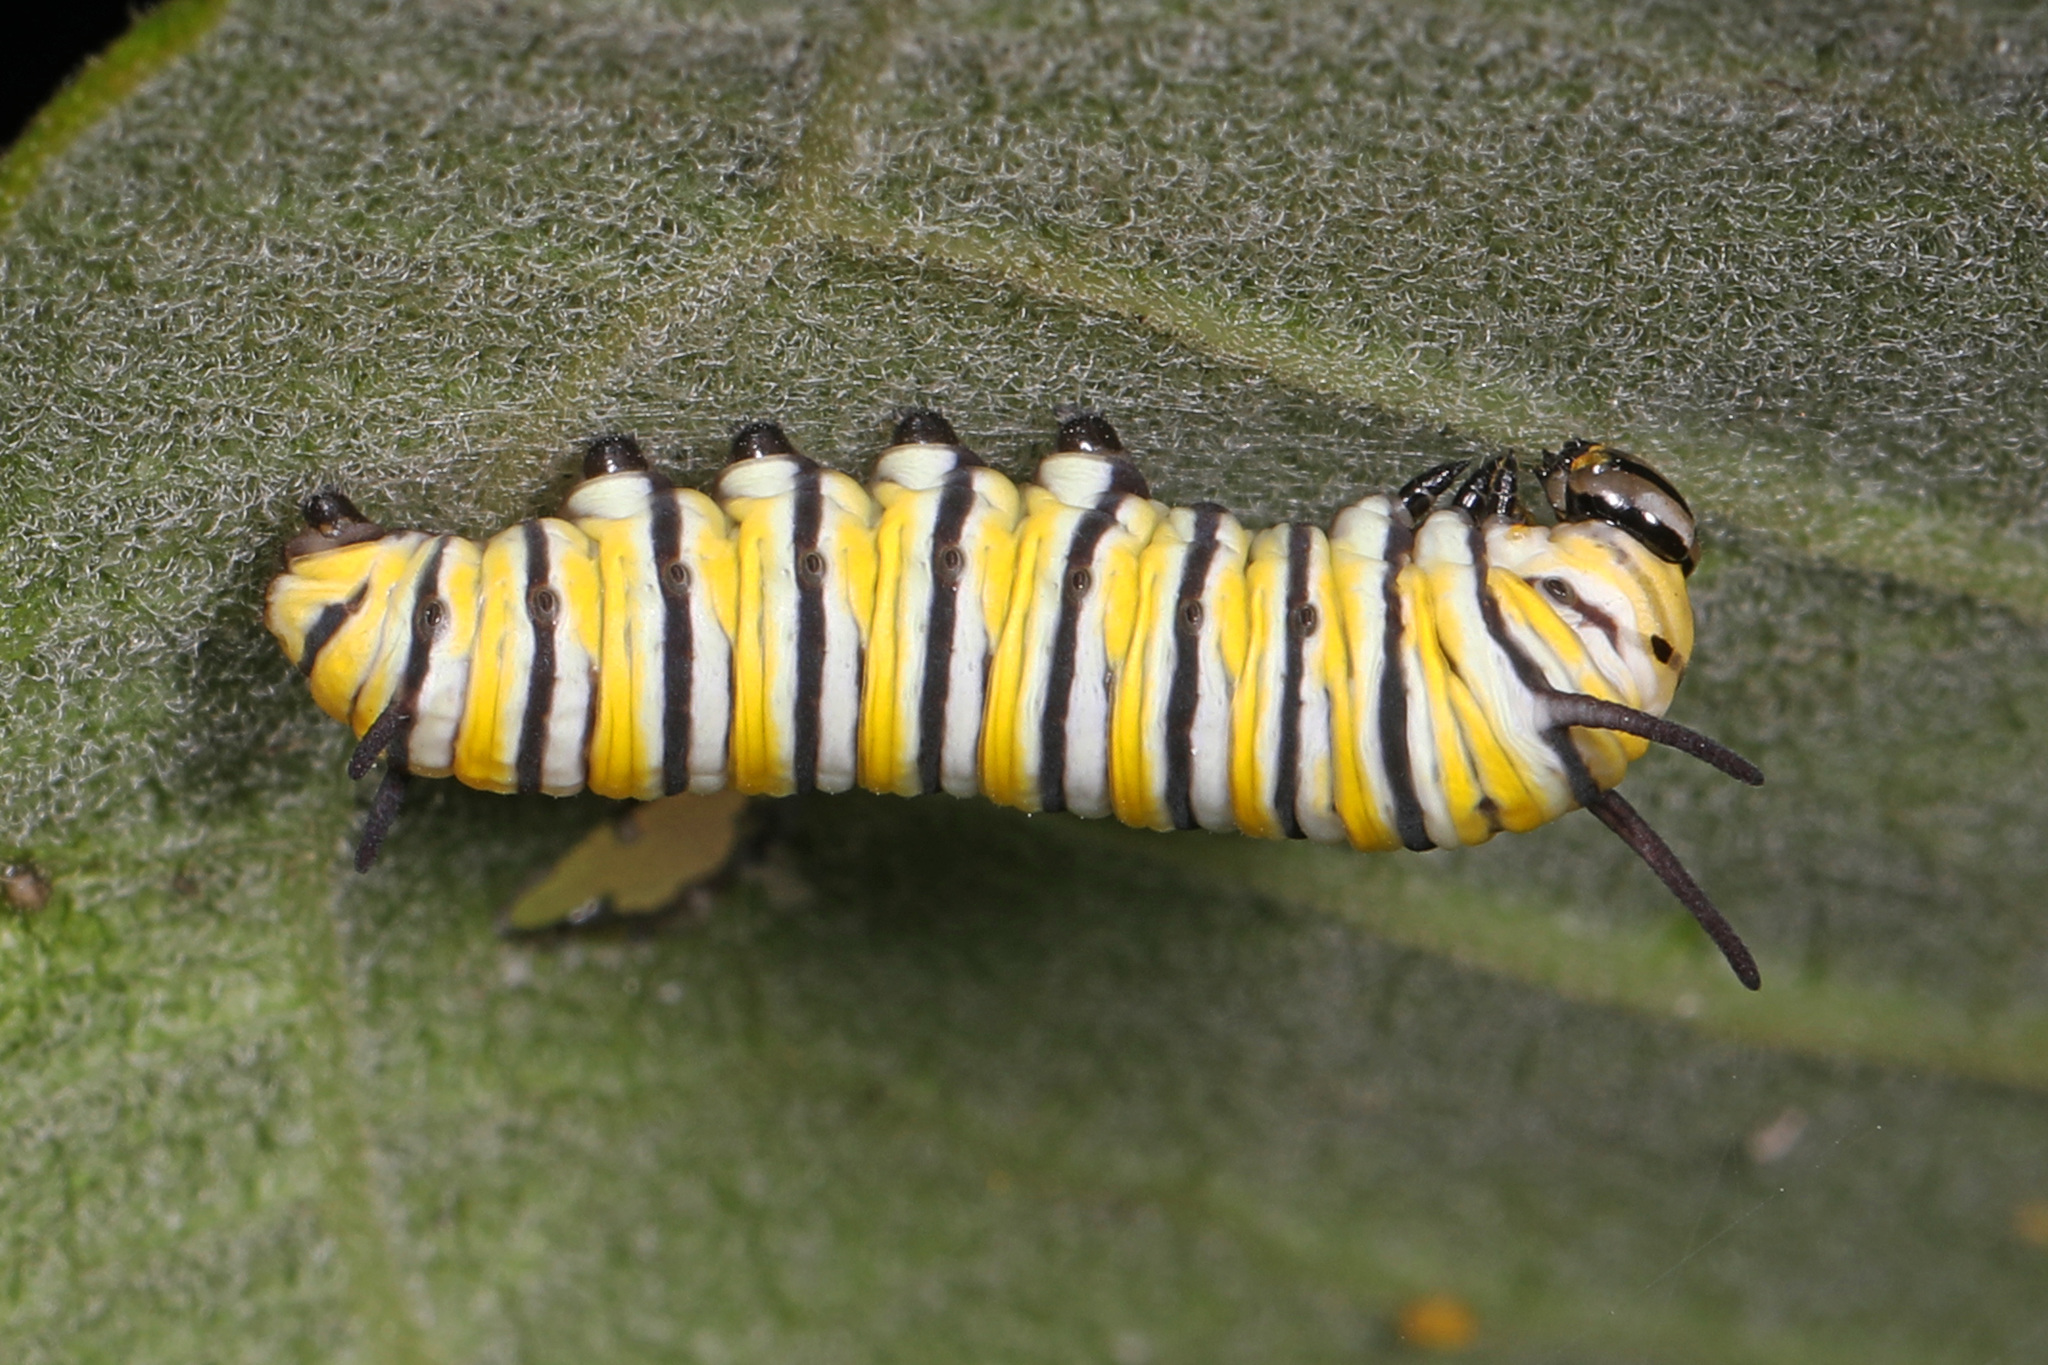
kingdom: Animalia
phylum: Arthropoda
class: Insecta
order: Lepidoptera
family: Nymphalidae
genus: Danaus
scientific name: Danaus plexippus
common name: Monarch
